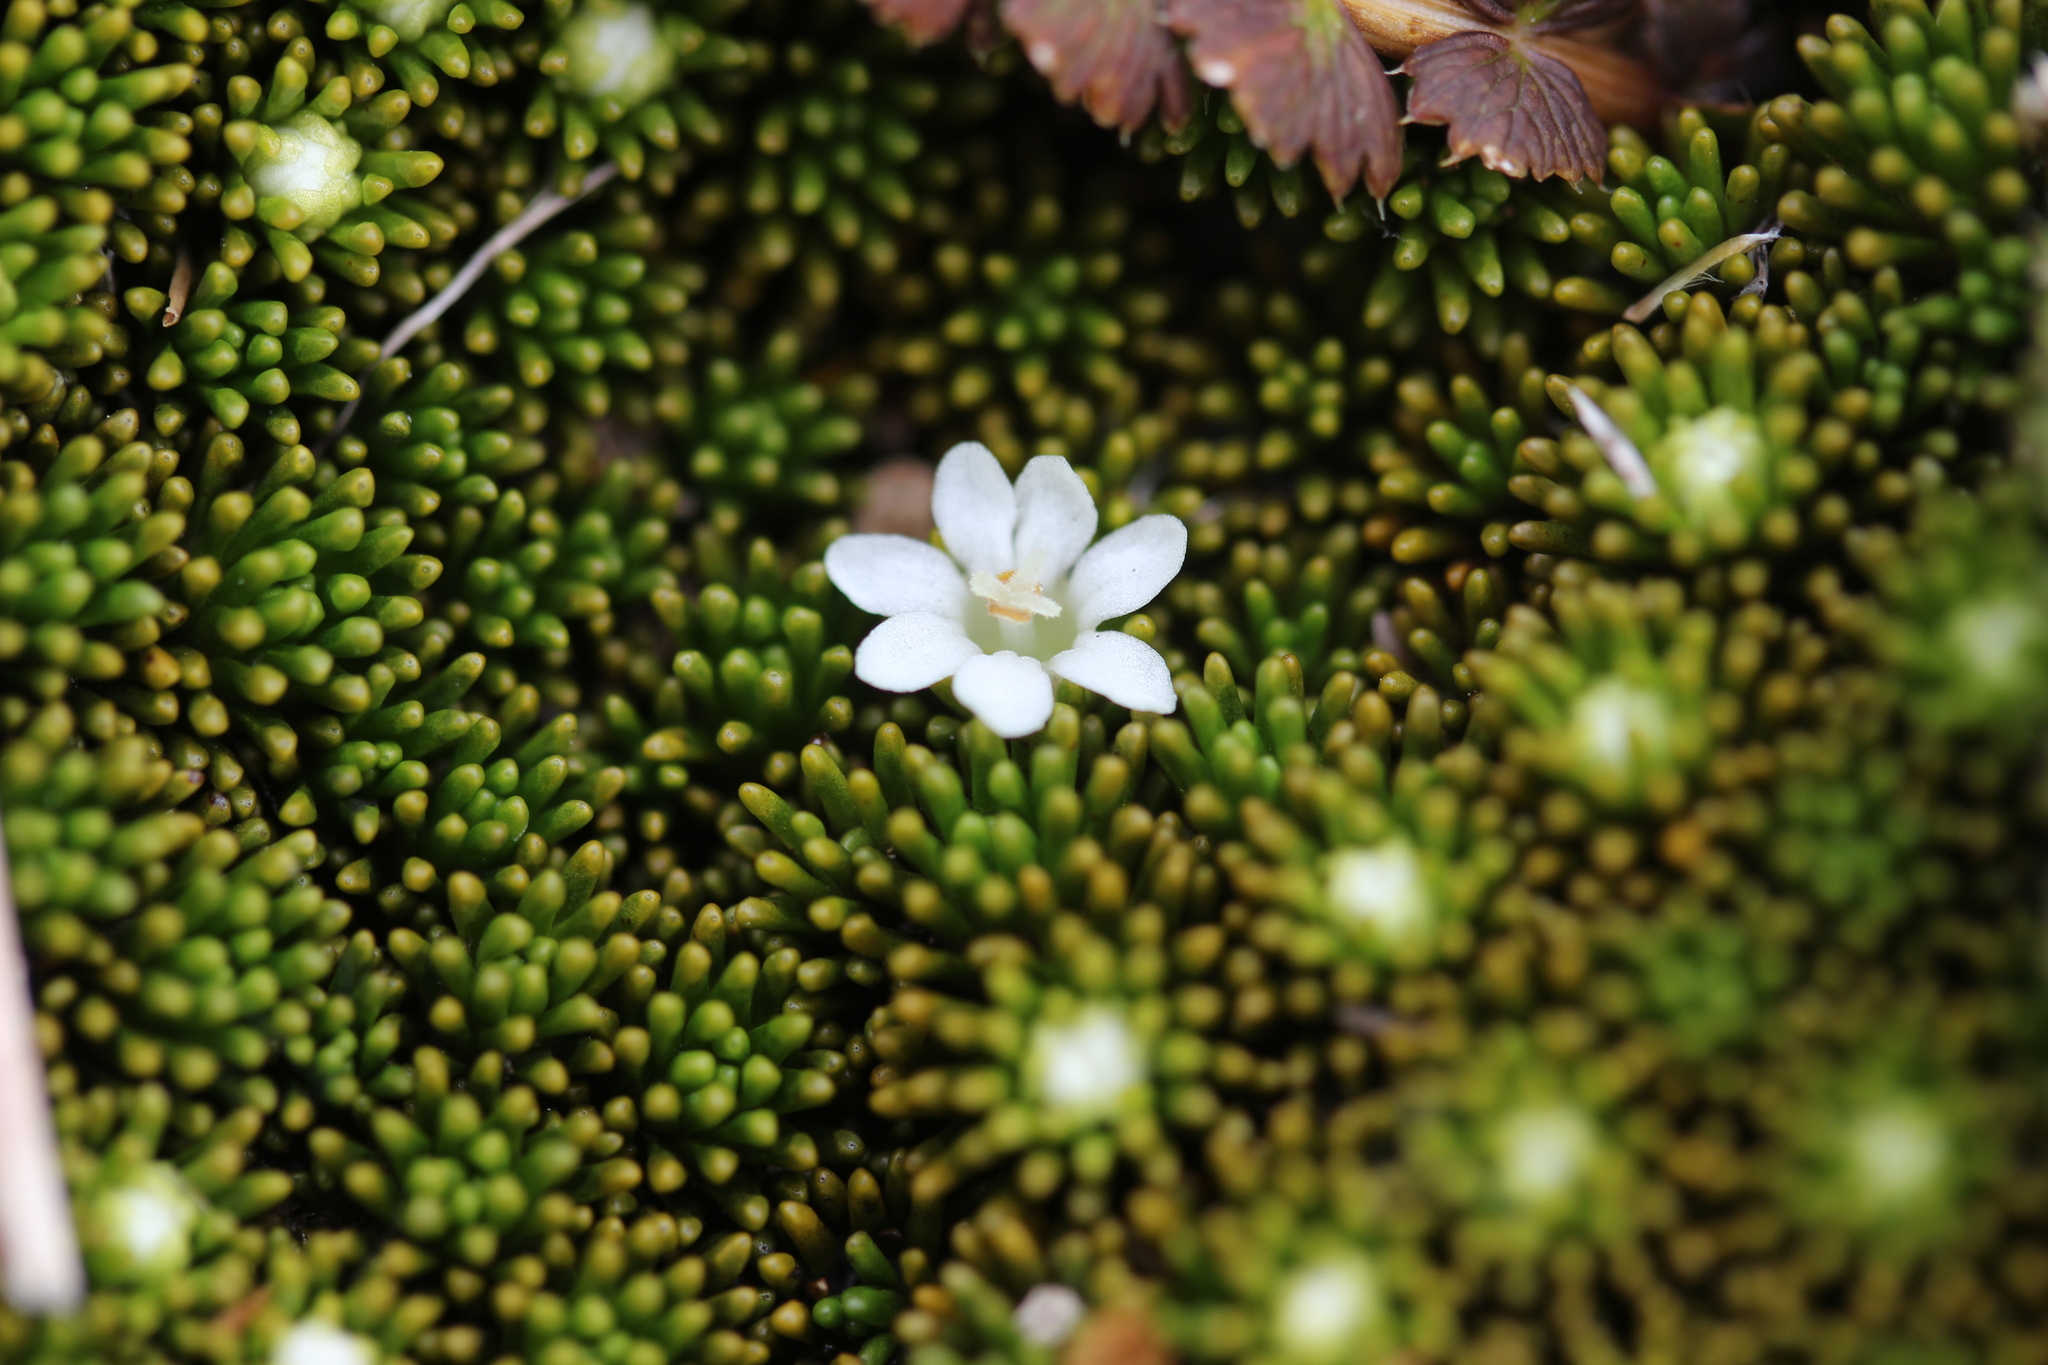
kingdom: Plantae
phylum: Tracheophyta
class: Magnoliopsida
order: Asterales
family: Stylidiaceae
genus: Phyllachne
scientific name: Phyllachne colensoi
